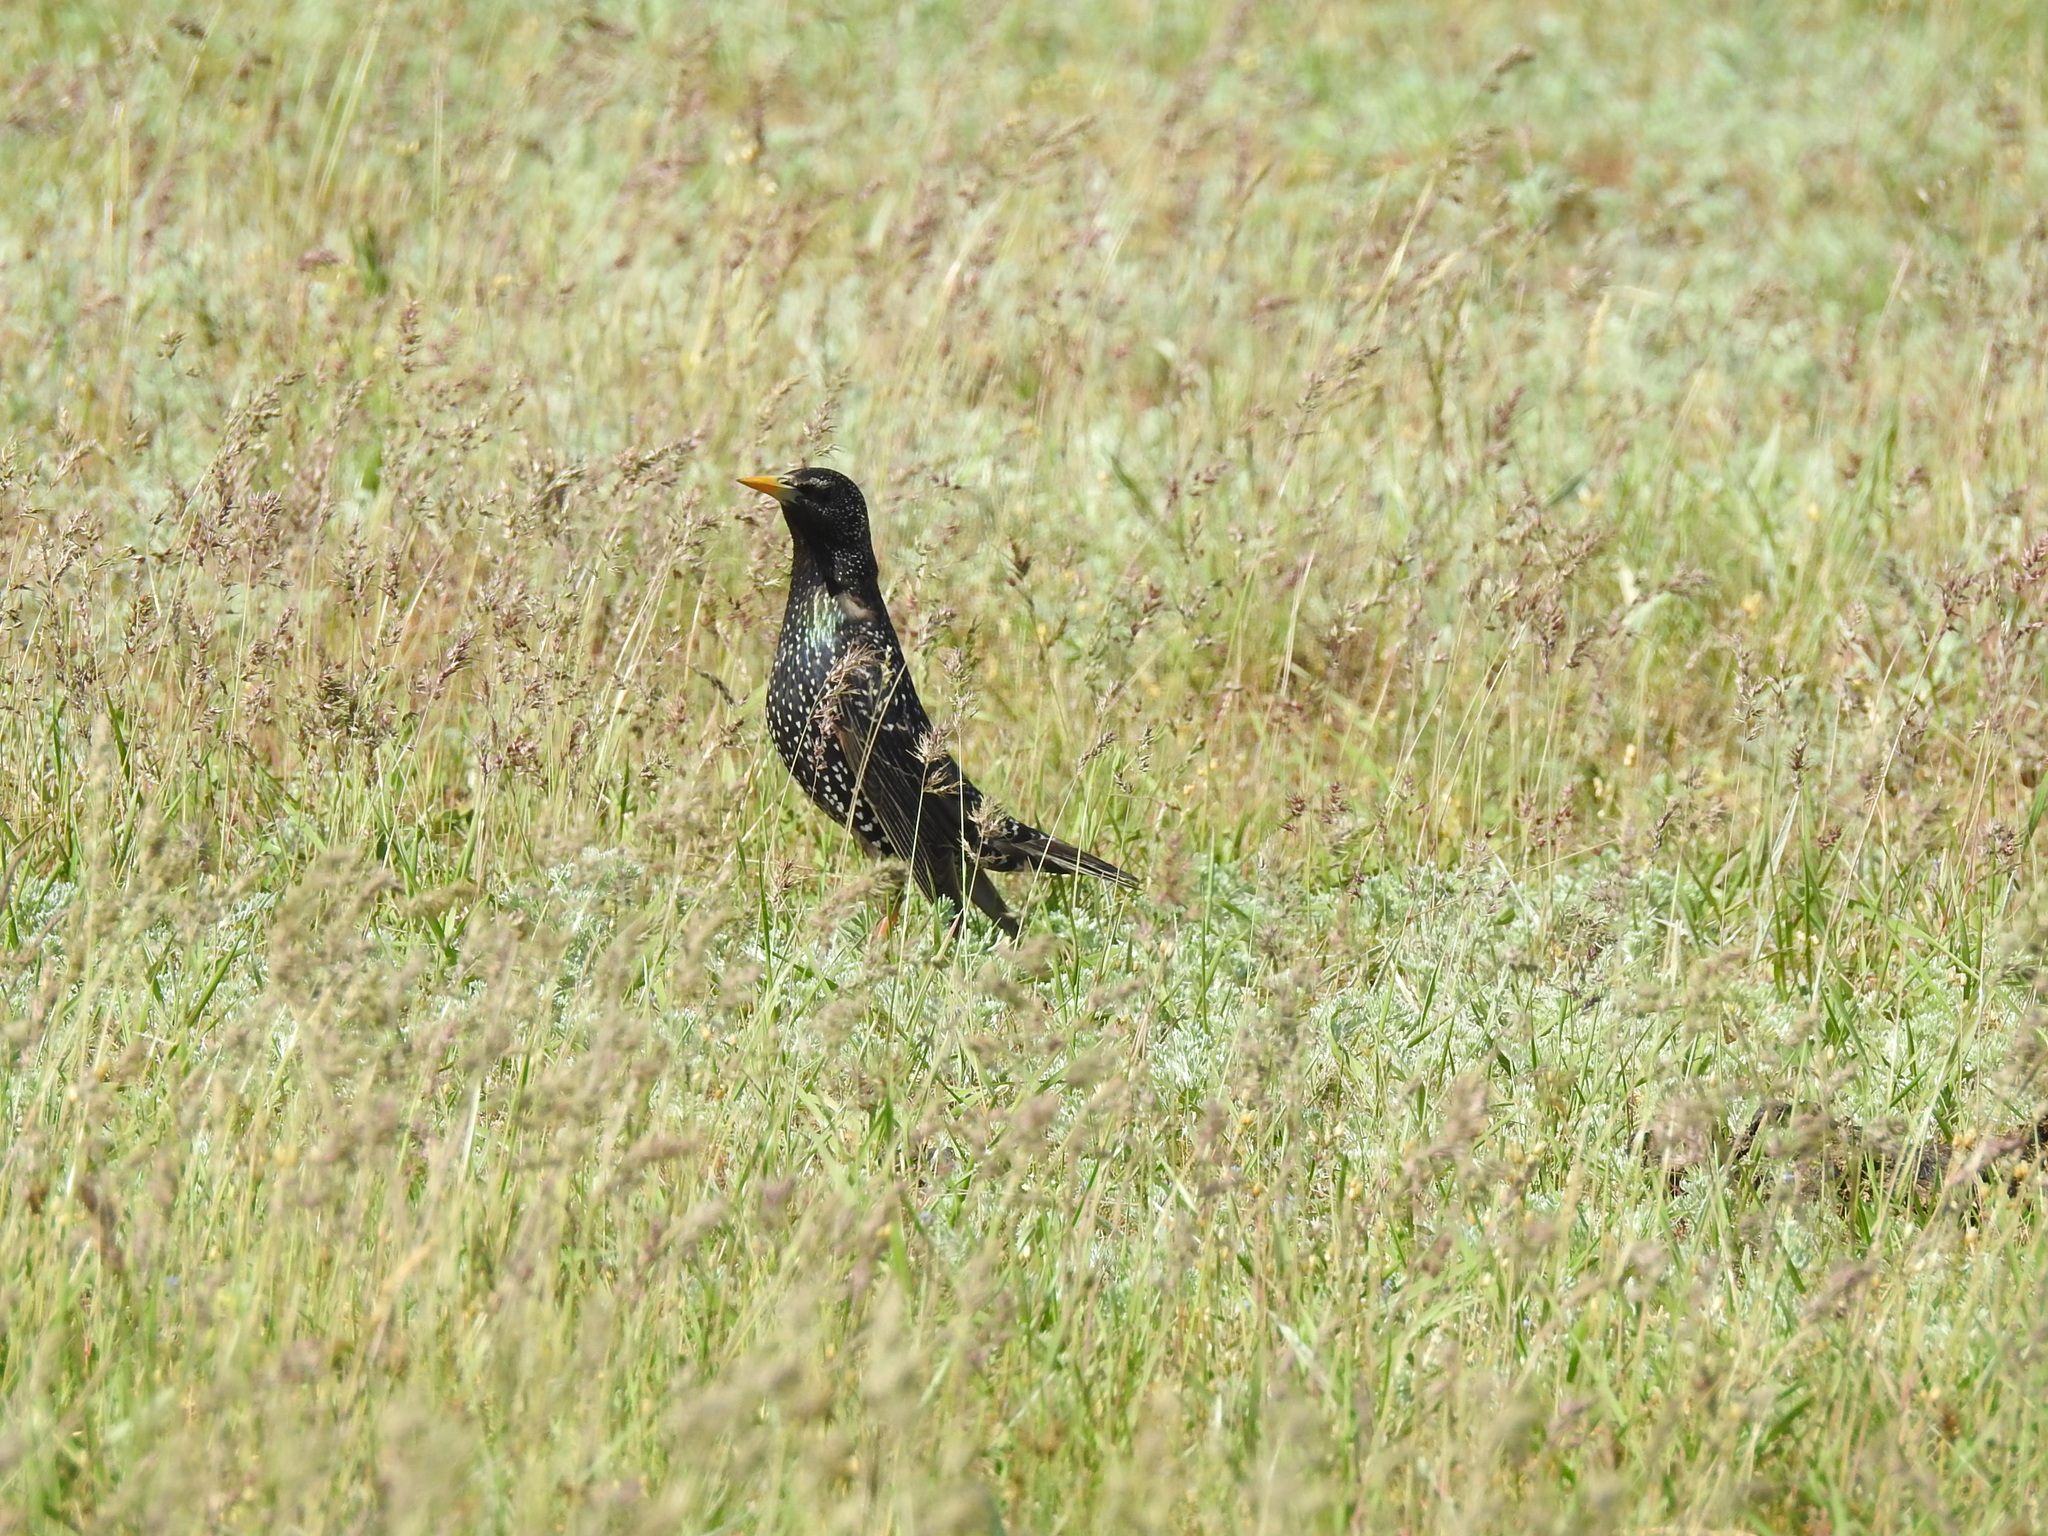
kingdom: Animalia
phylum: Chordata
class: Aves
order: Passeriformes
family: Sturnidae
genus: Sturnus
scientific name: Sturnus vulgaris
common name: Common starling
